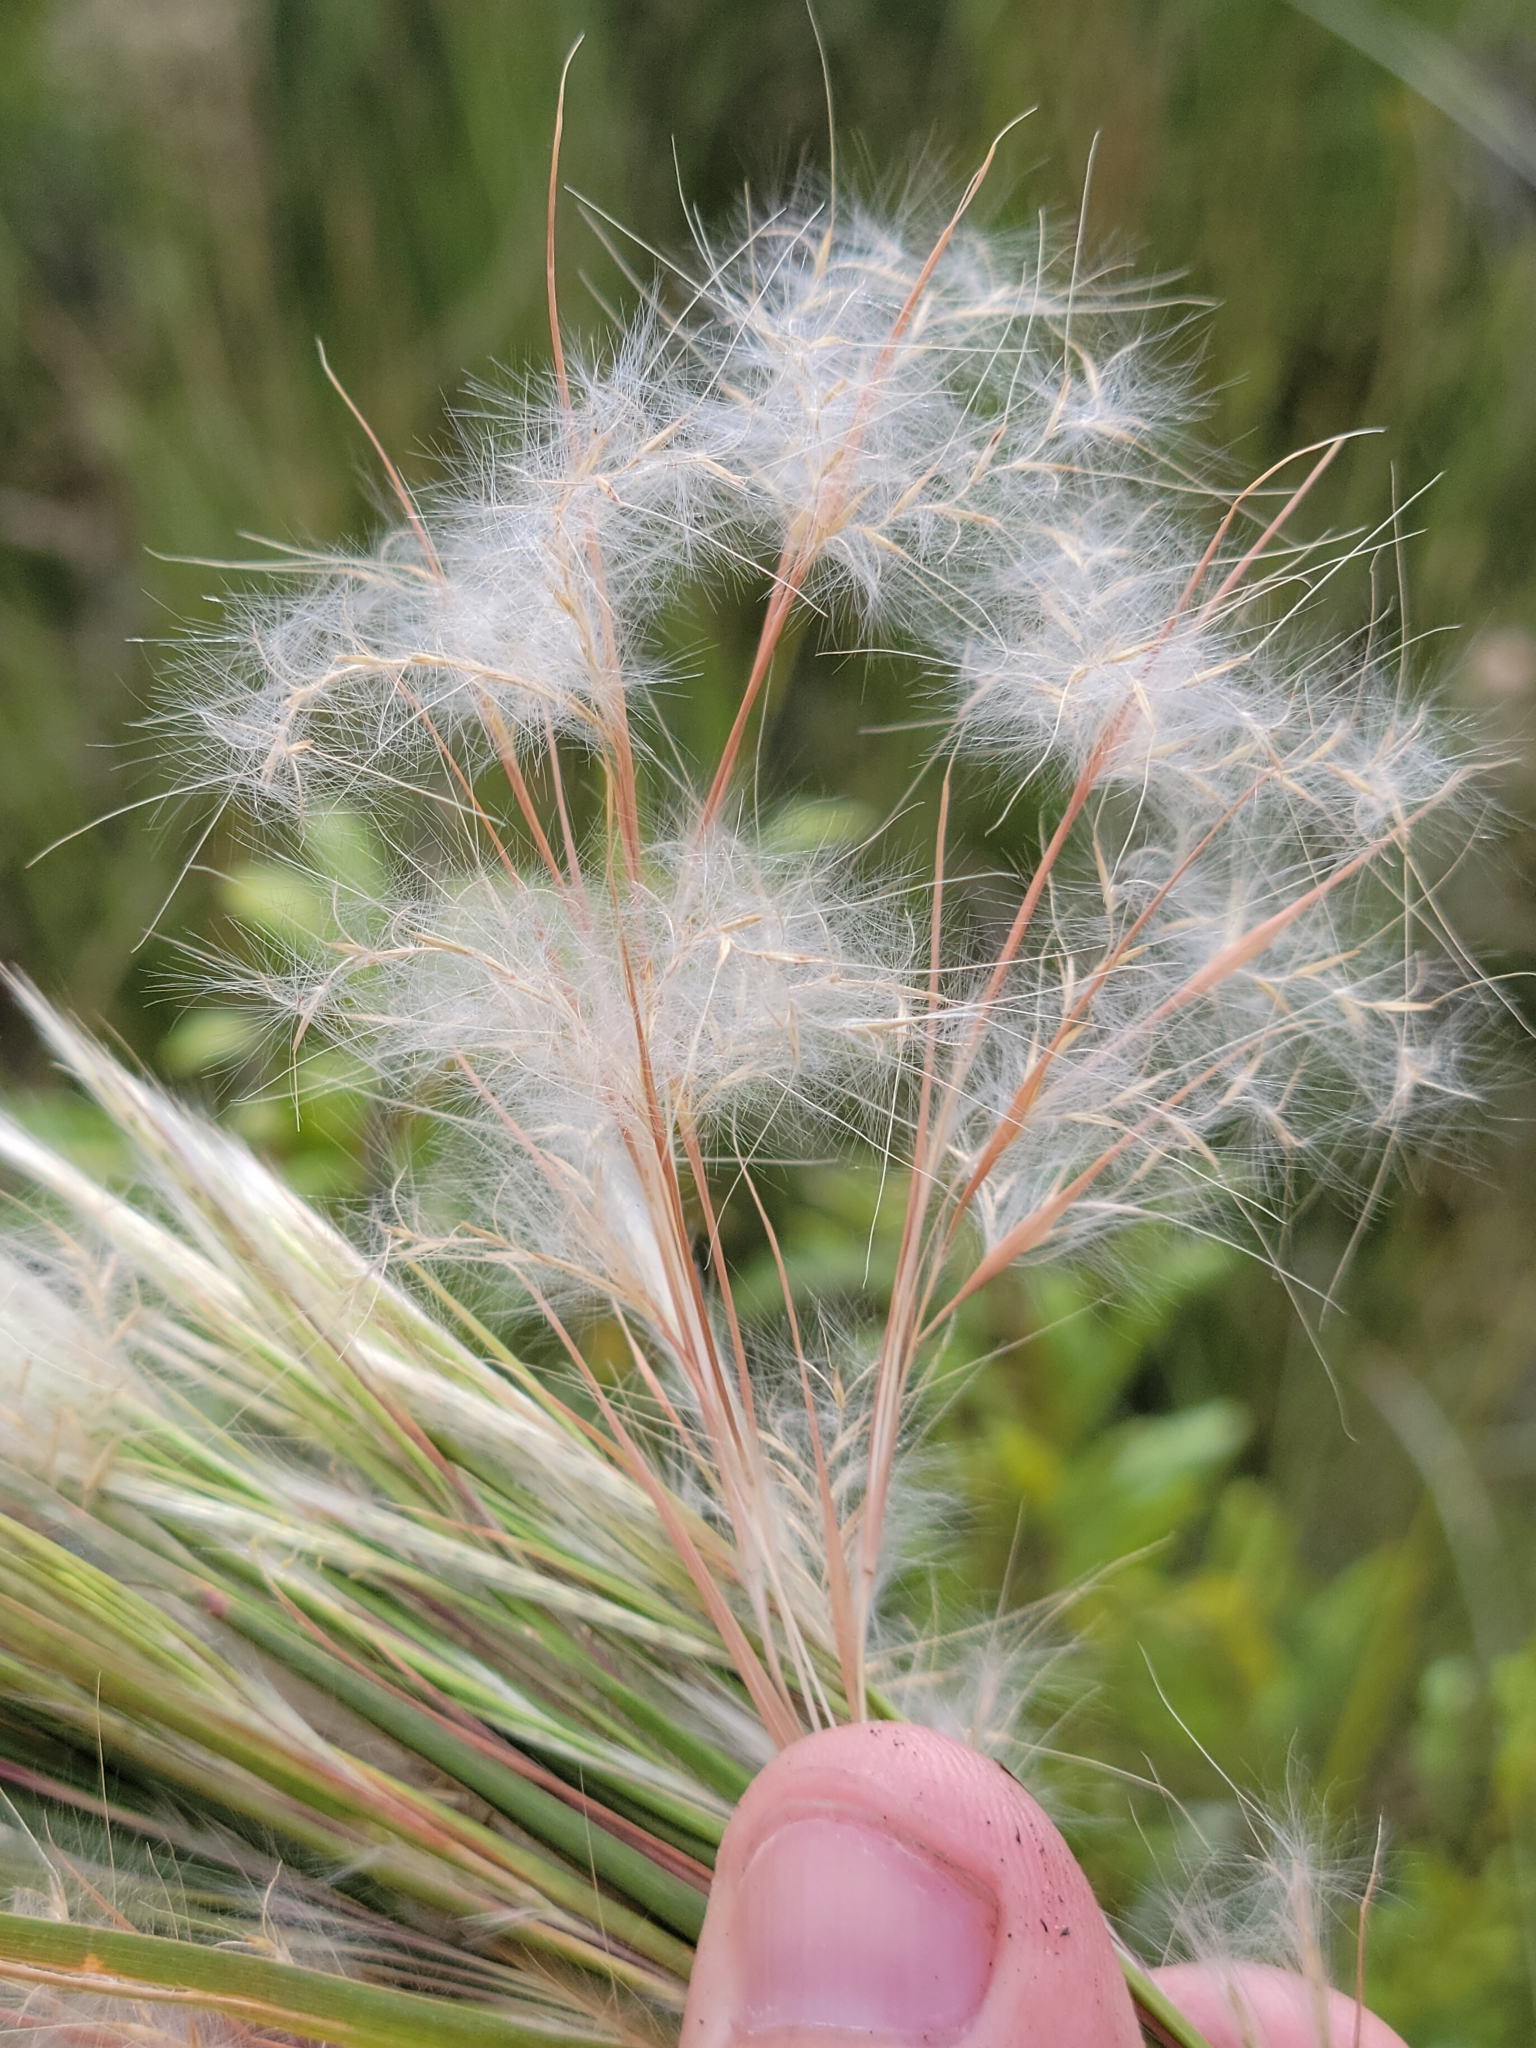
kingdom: Plantae
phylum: Tracheophyta
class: Liliopsida
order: Poales
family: Poaceae
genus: Andropogon
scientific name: Andropogon tenuispatheus
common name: Bushy bluestem
